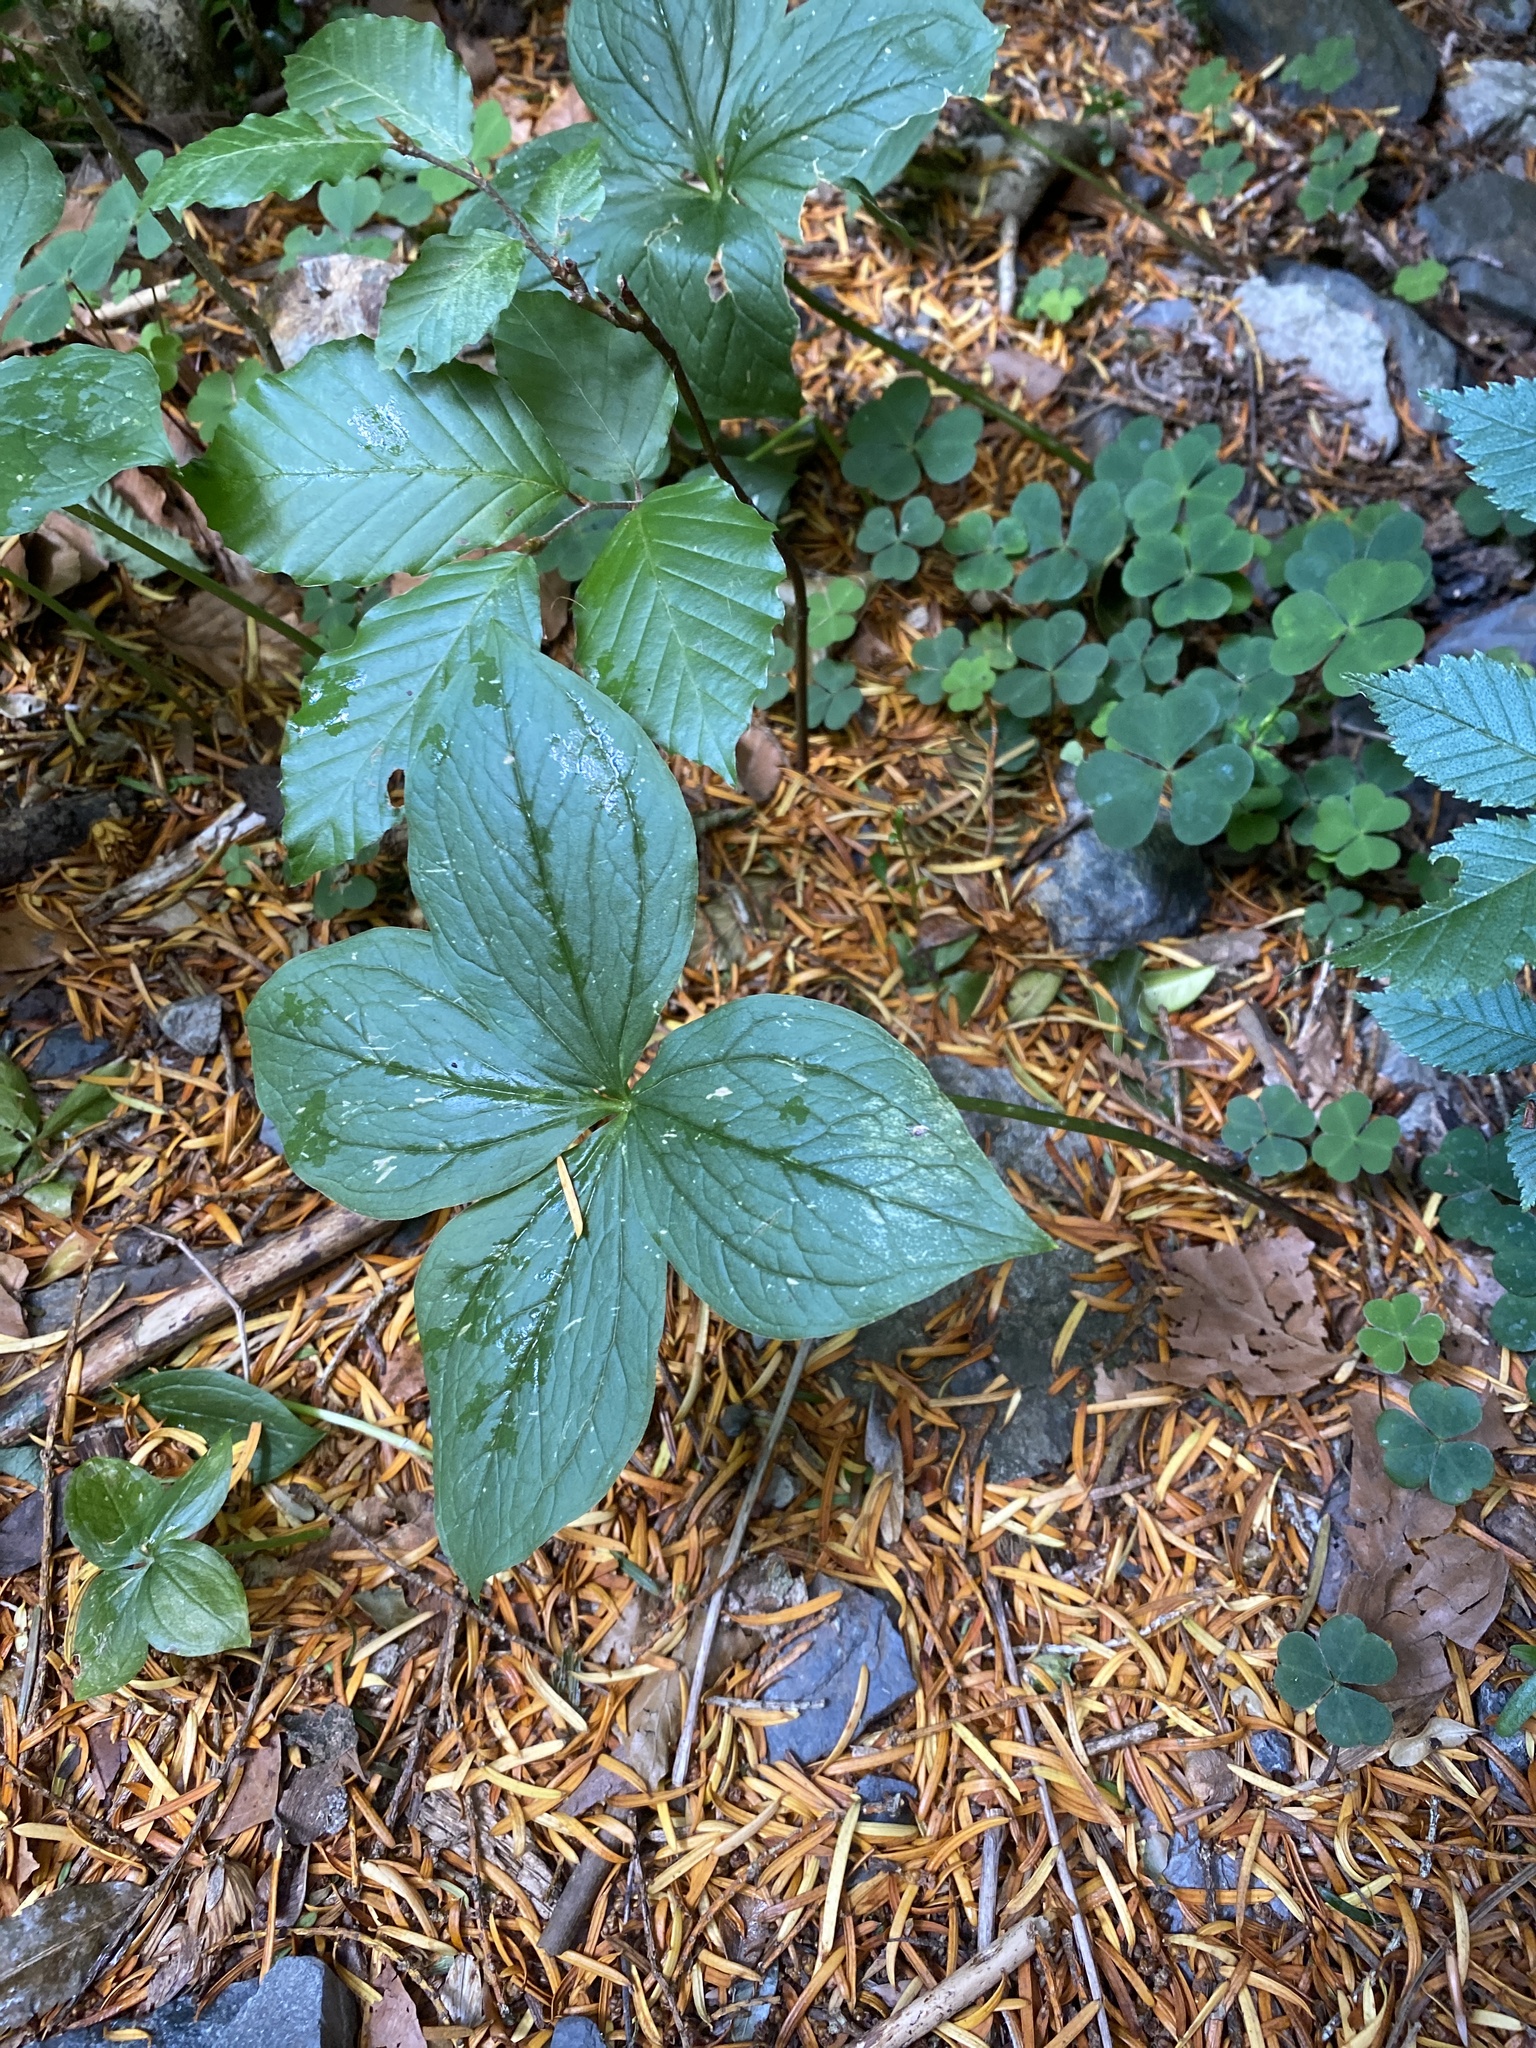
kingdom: Plantae
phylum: Tracheophyta
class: Liliopsida
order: Liliales
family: Melanthiaceae
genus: Paris
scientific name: Paris quadrifolia
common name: Herb-paris
